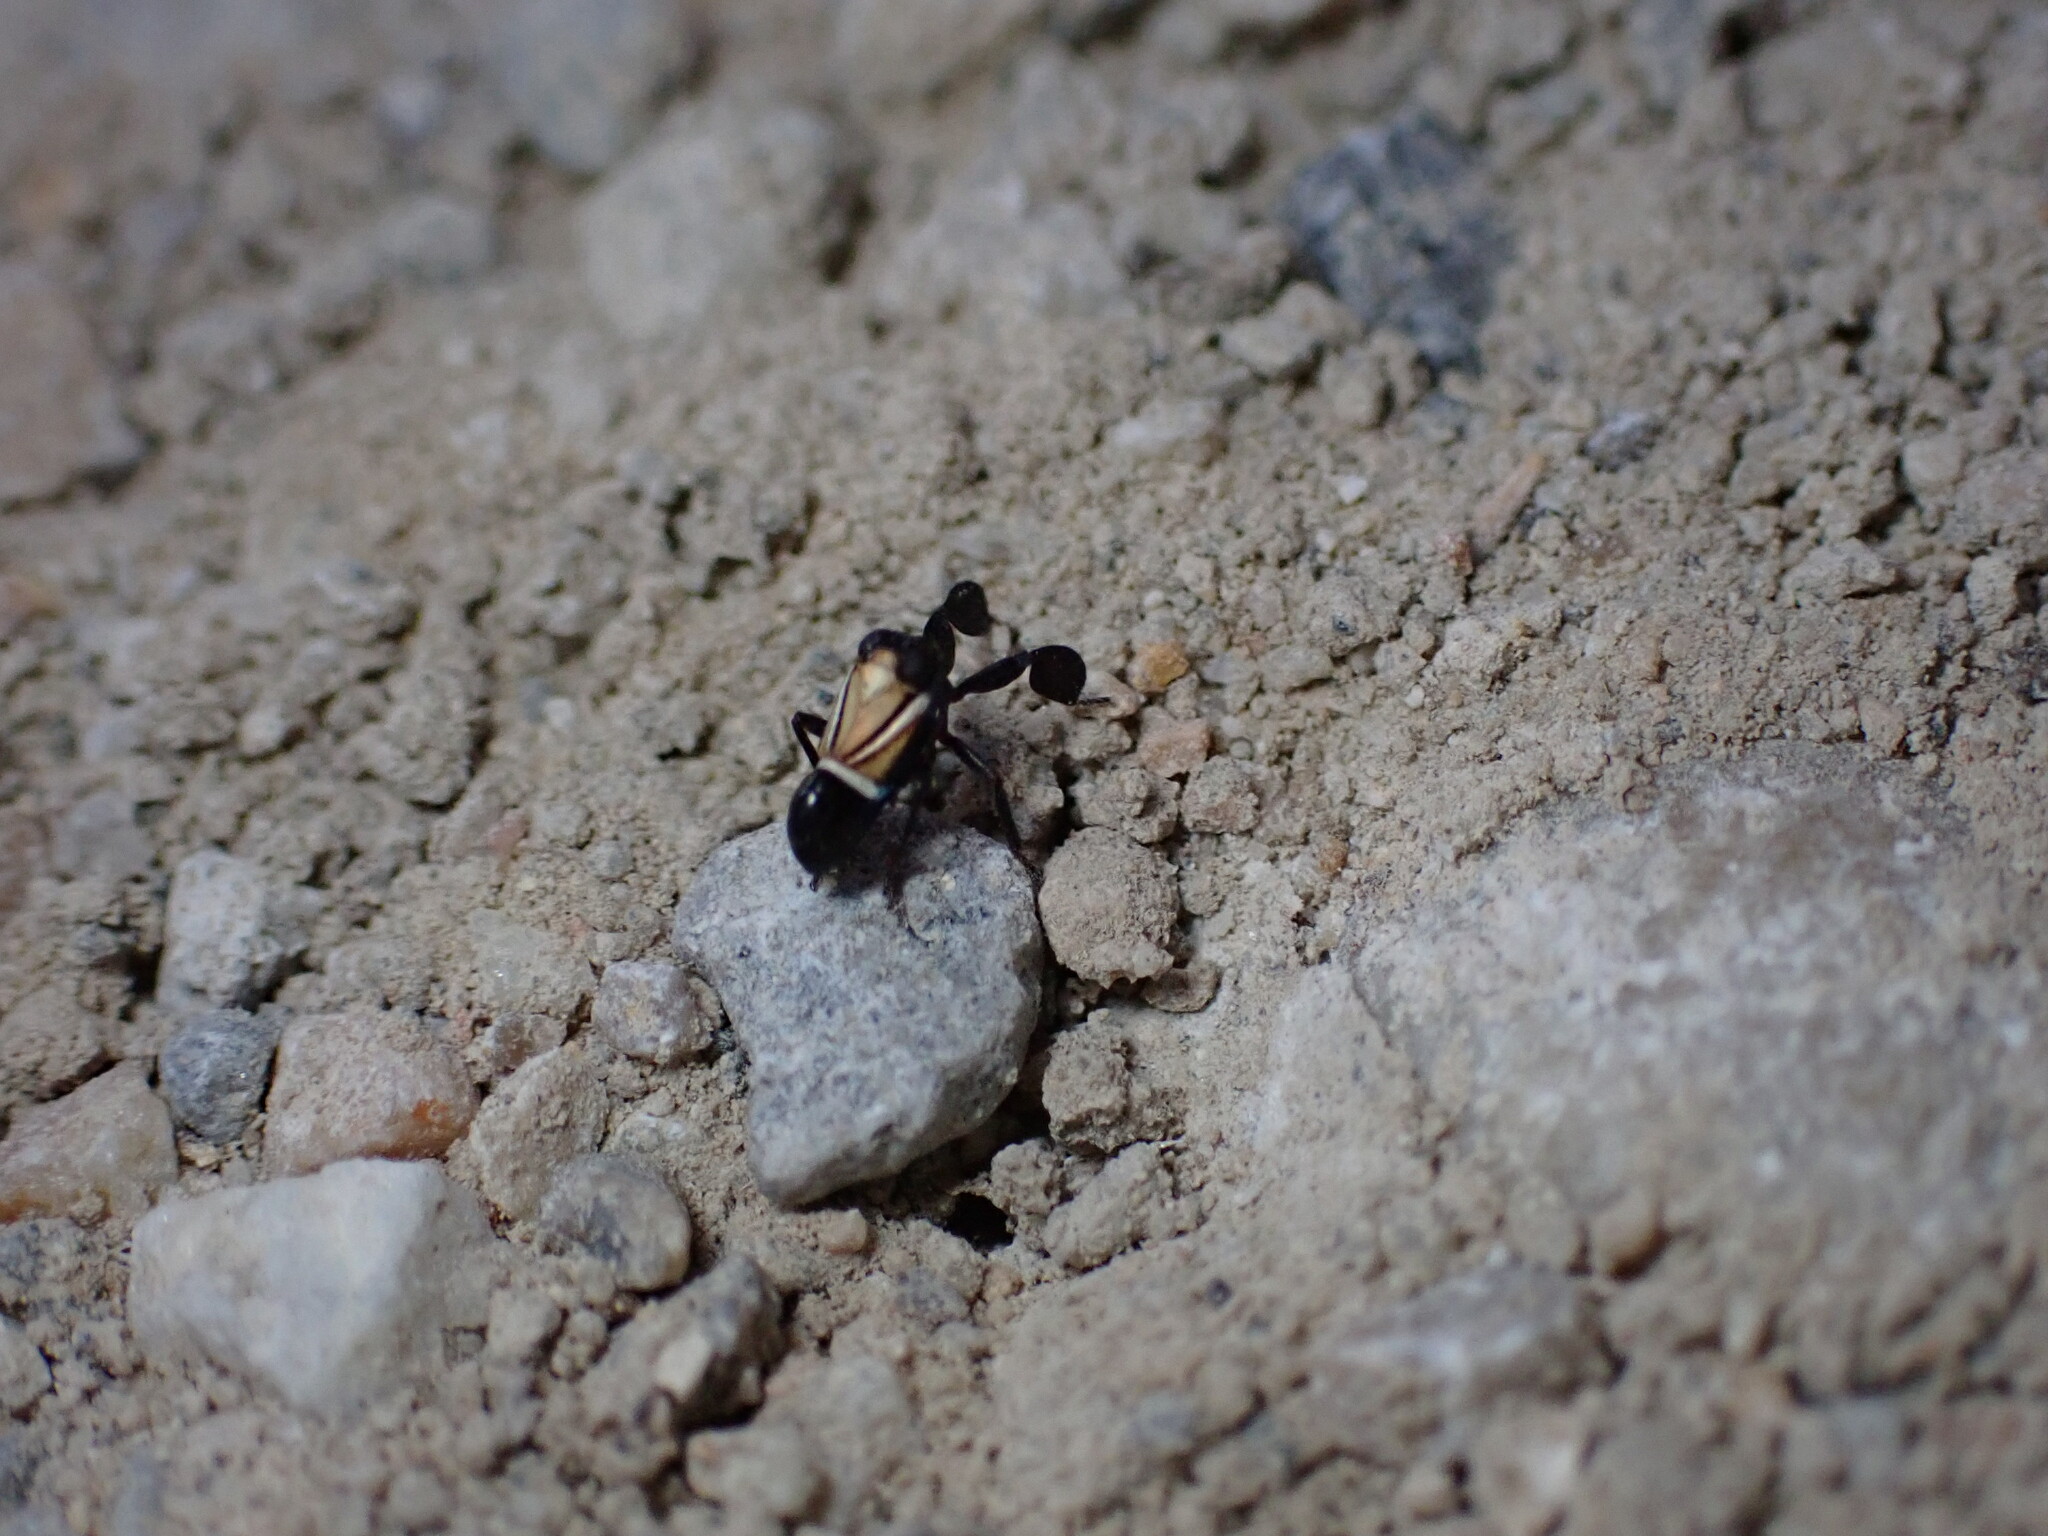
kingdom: Animalia
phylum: Arthropoda
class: Insecta
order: Hemiptera
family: Caliscelidae
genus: Caliscelis
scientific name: Caliscelis bonellii
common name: Planthopper
